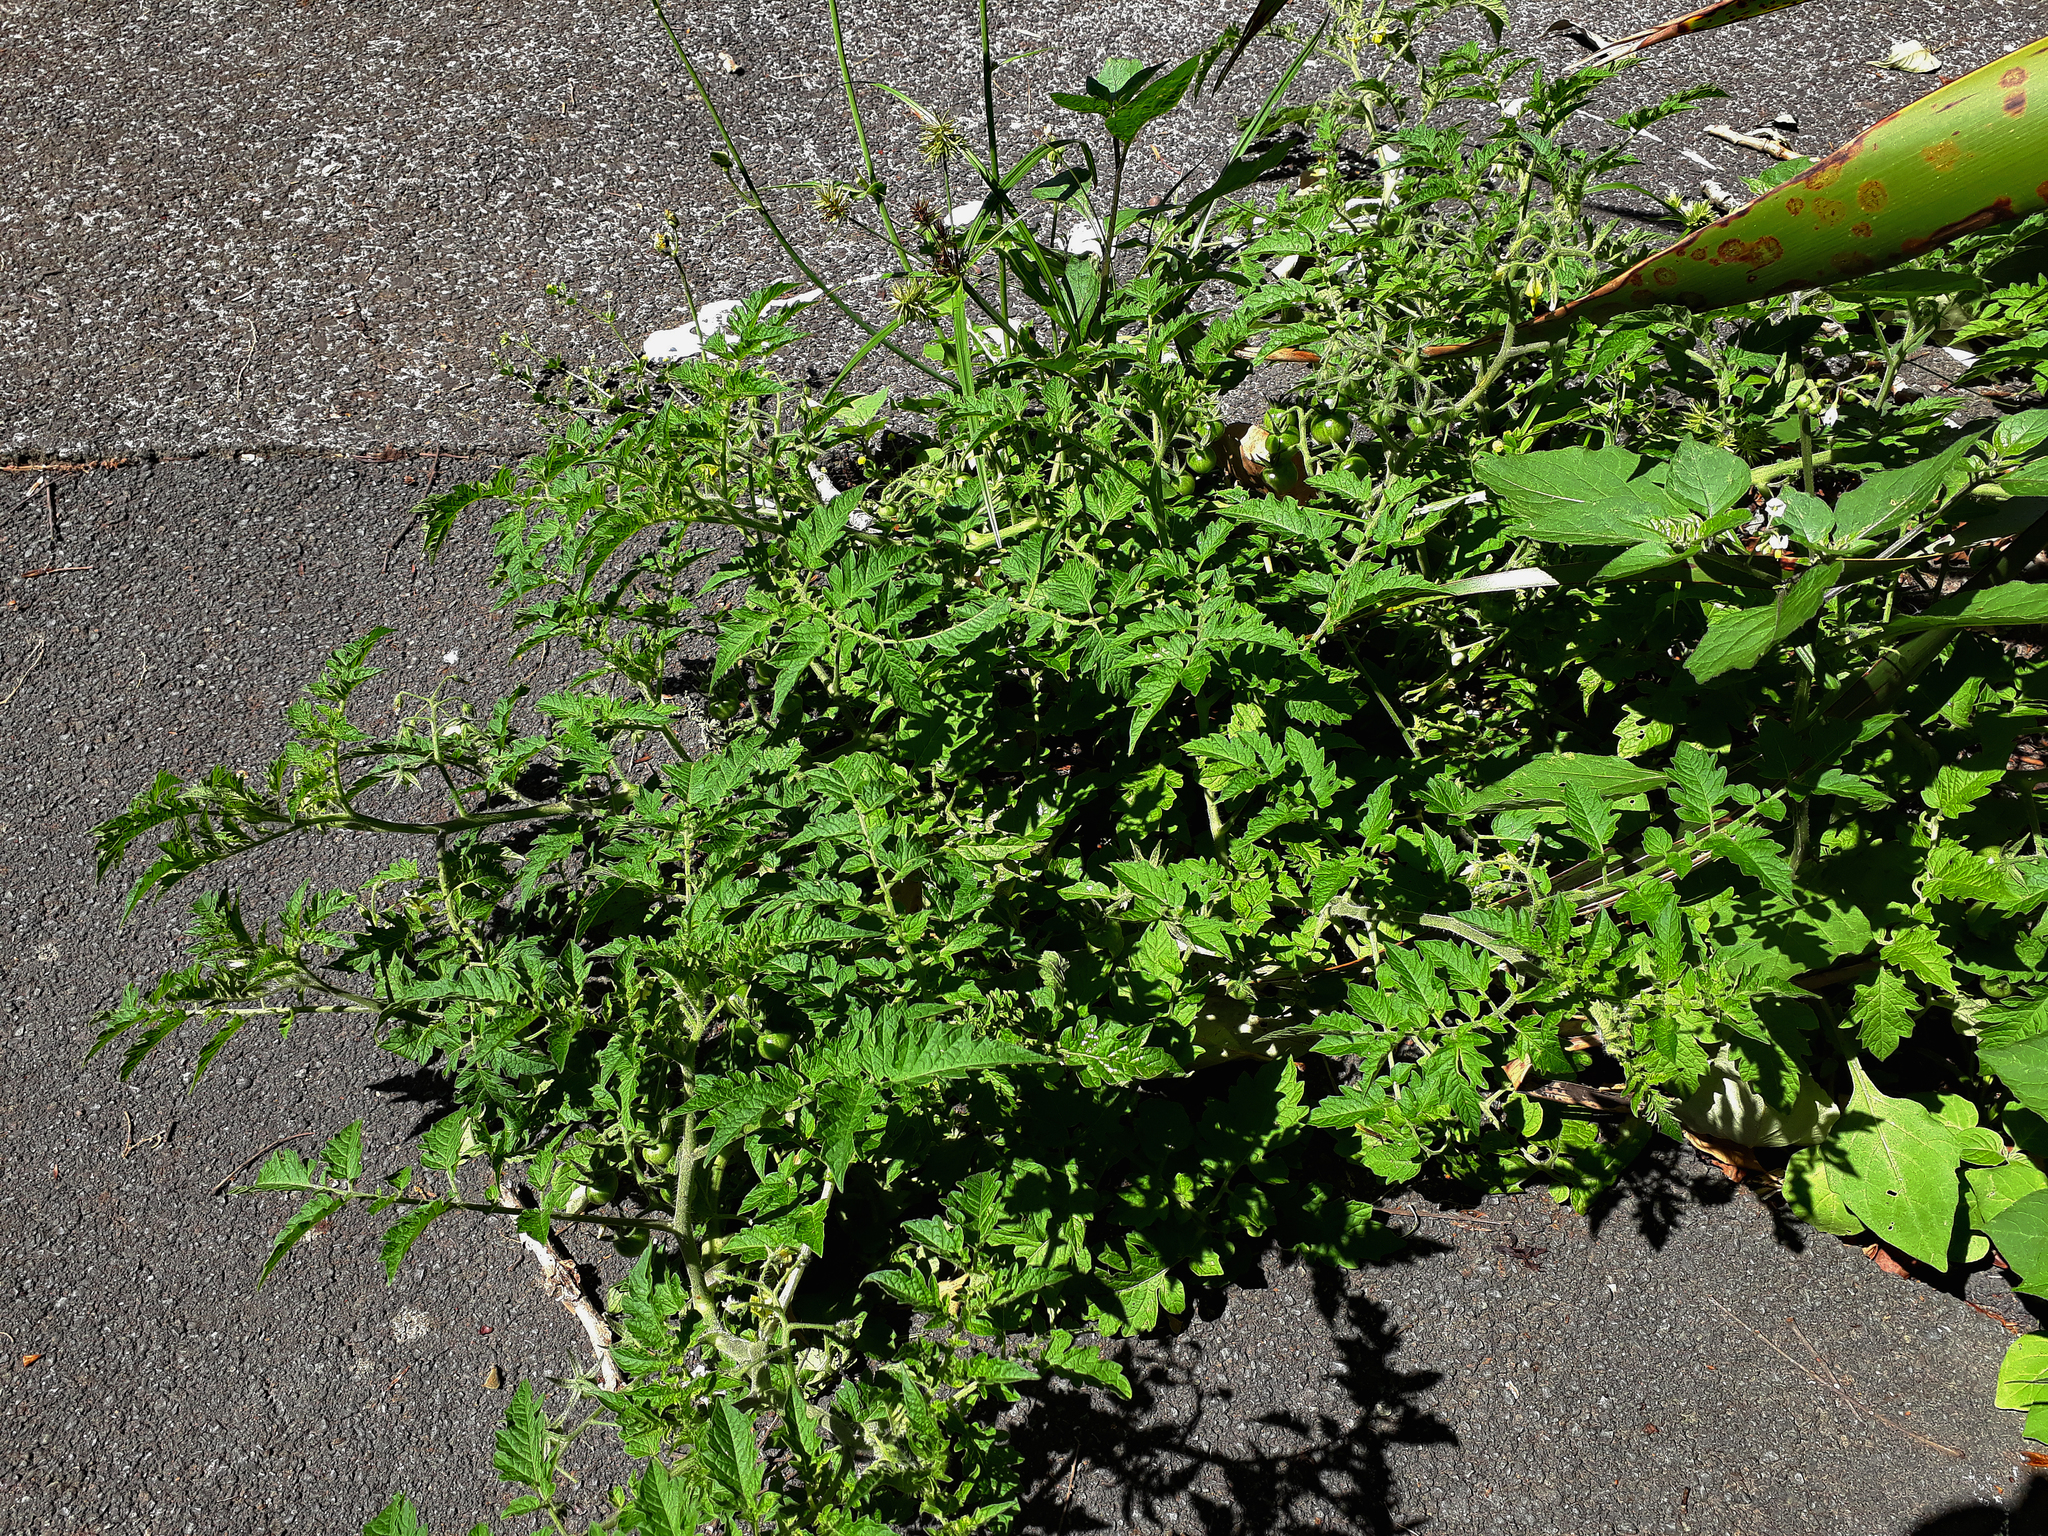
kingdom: Plantae
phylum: Tracheophyta
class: Magnoliopsida
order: Solanales
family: Solanaceae
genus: Solanum
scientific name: Solanum lycopersicum
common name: Garden tomato
